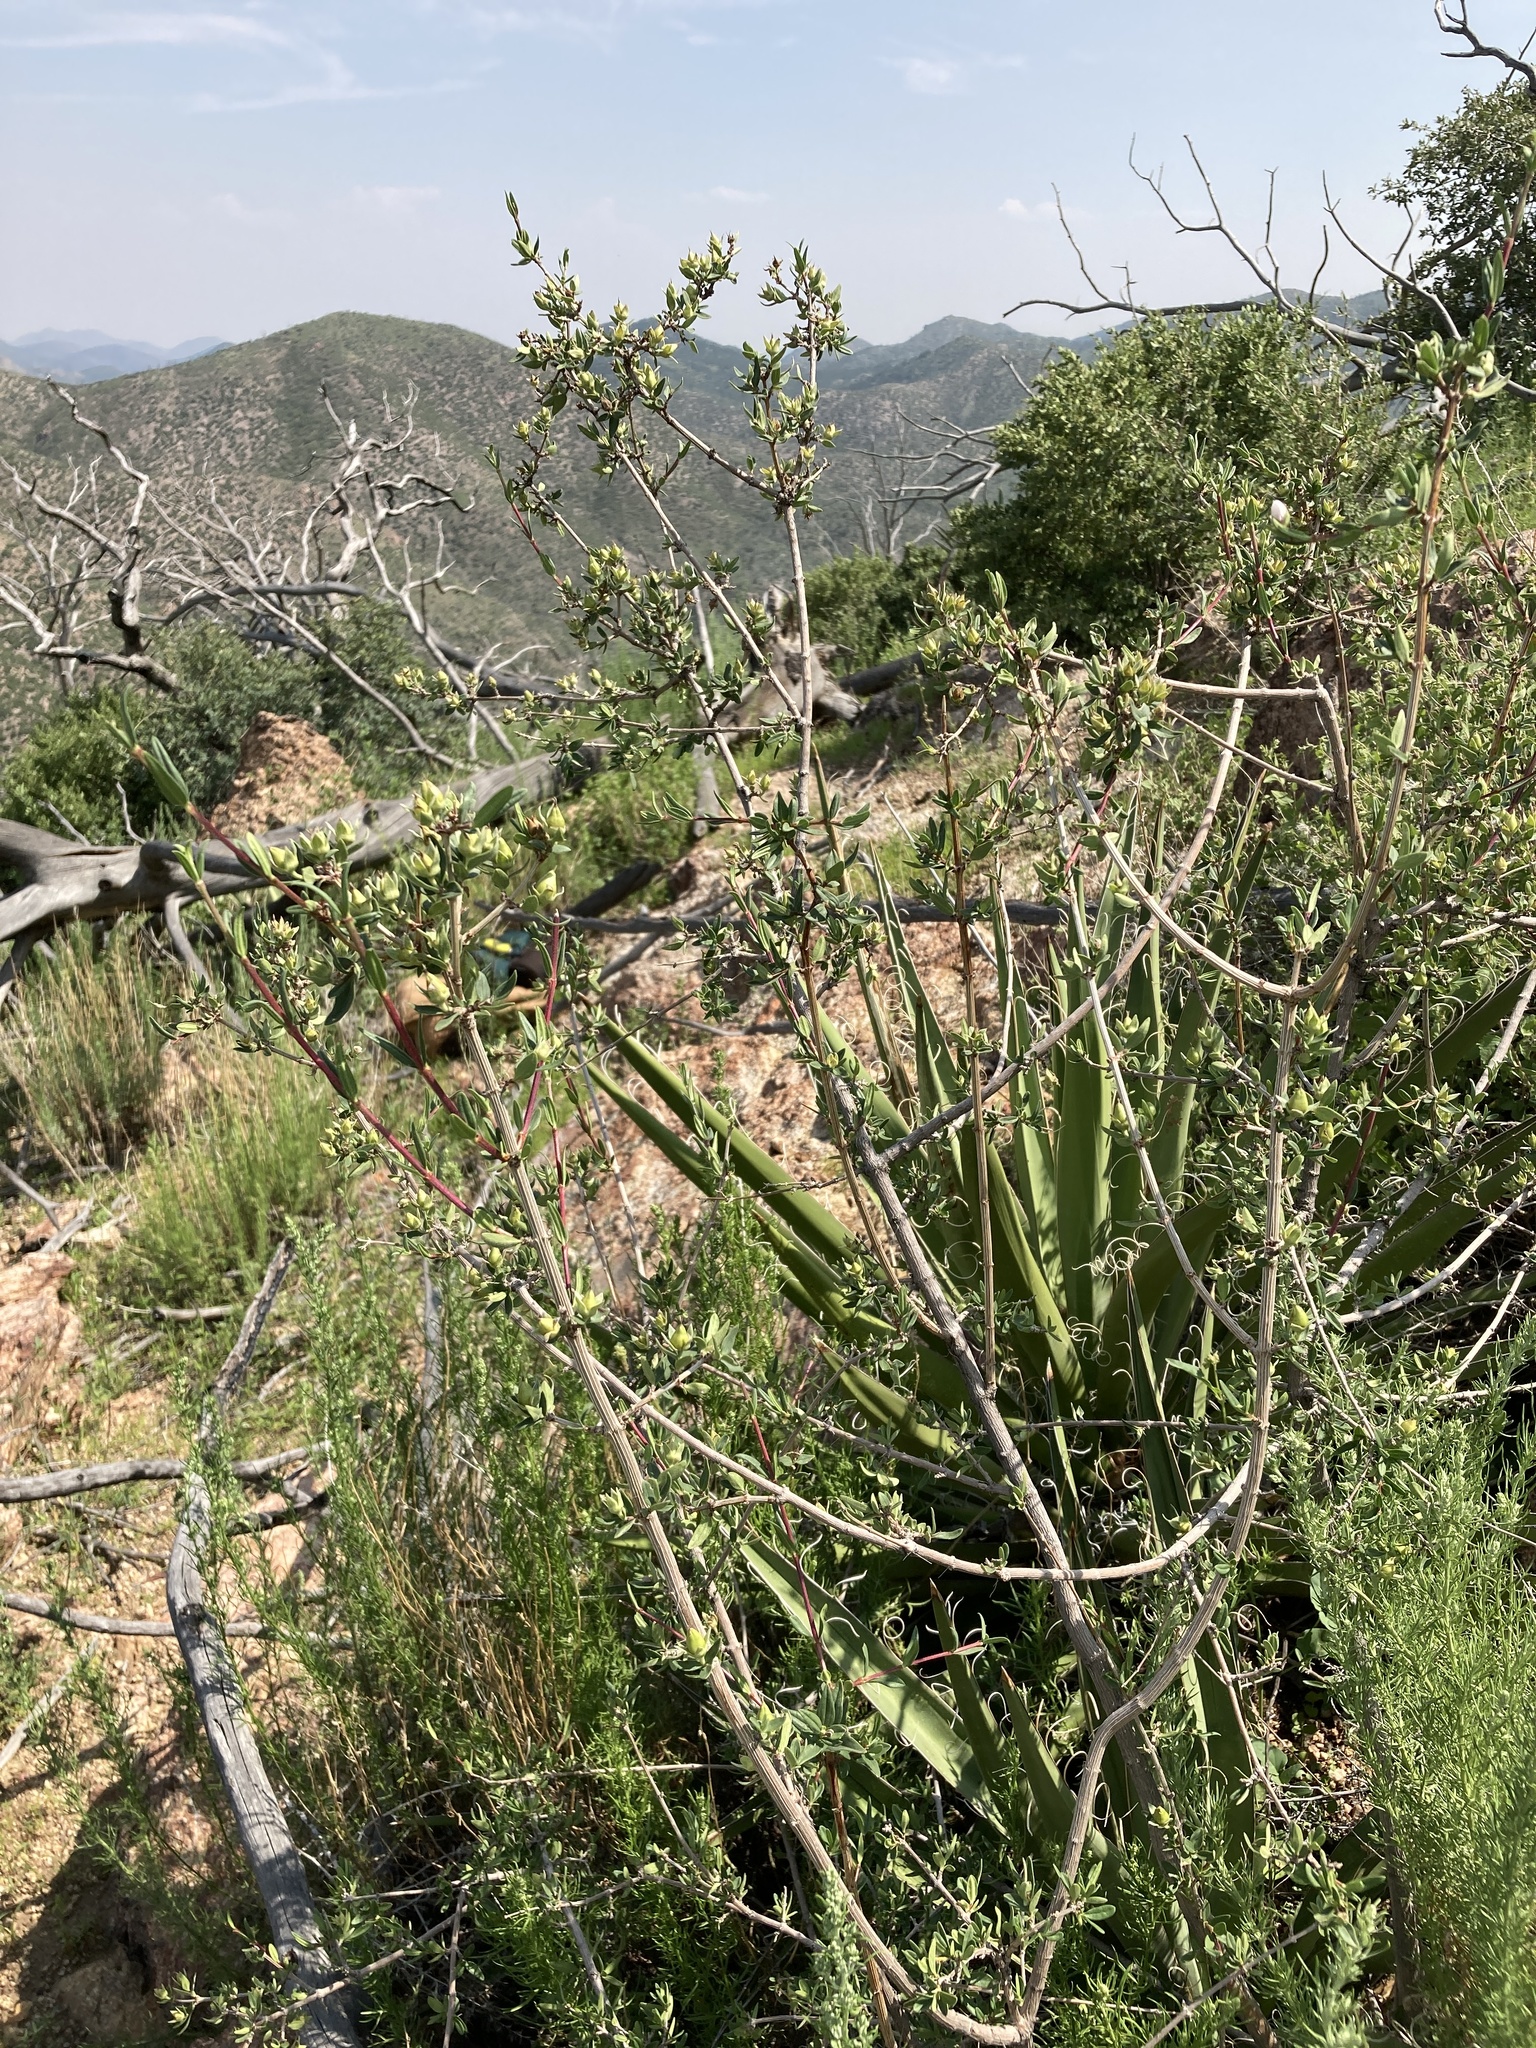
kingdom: Plantae
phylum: Tracheophyta
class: Magnoliopsida
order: Cornales
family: Hydrangeaceae
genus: Fendlera
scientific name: Fendlera rupicola
